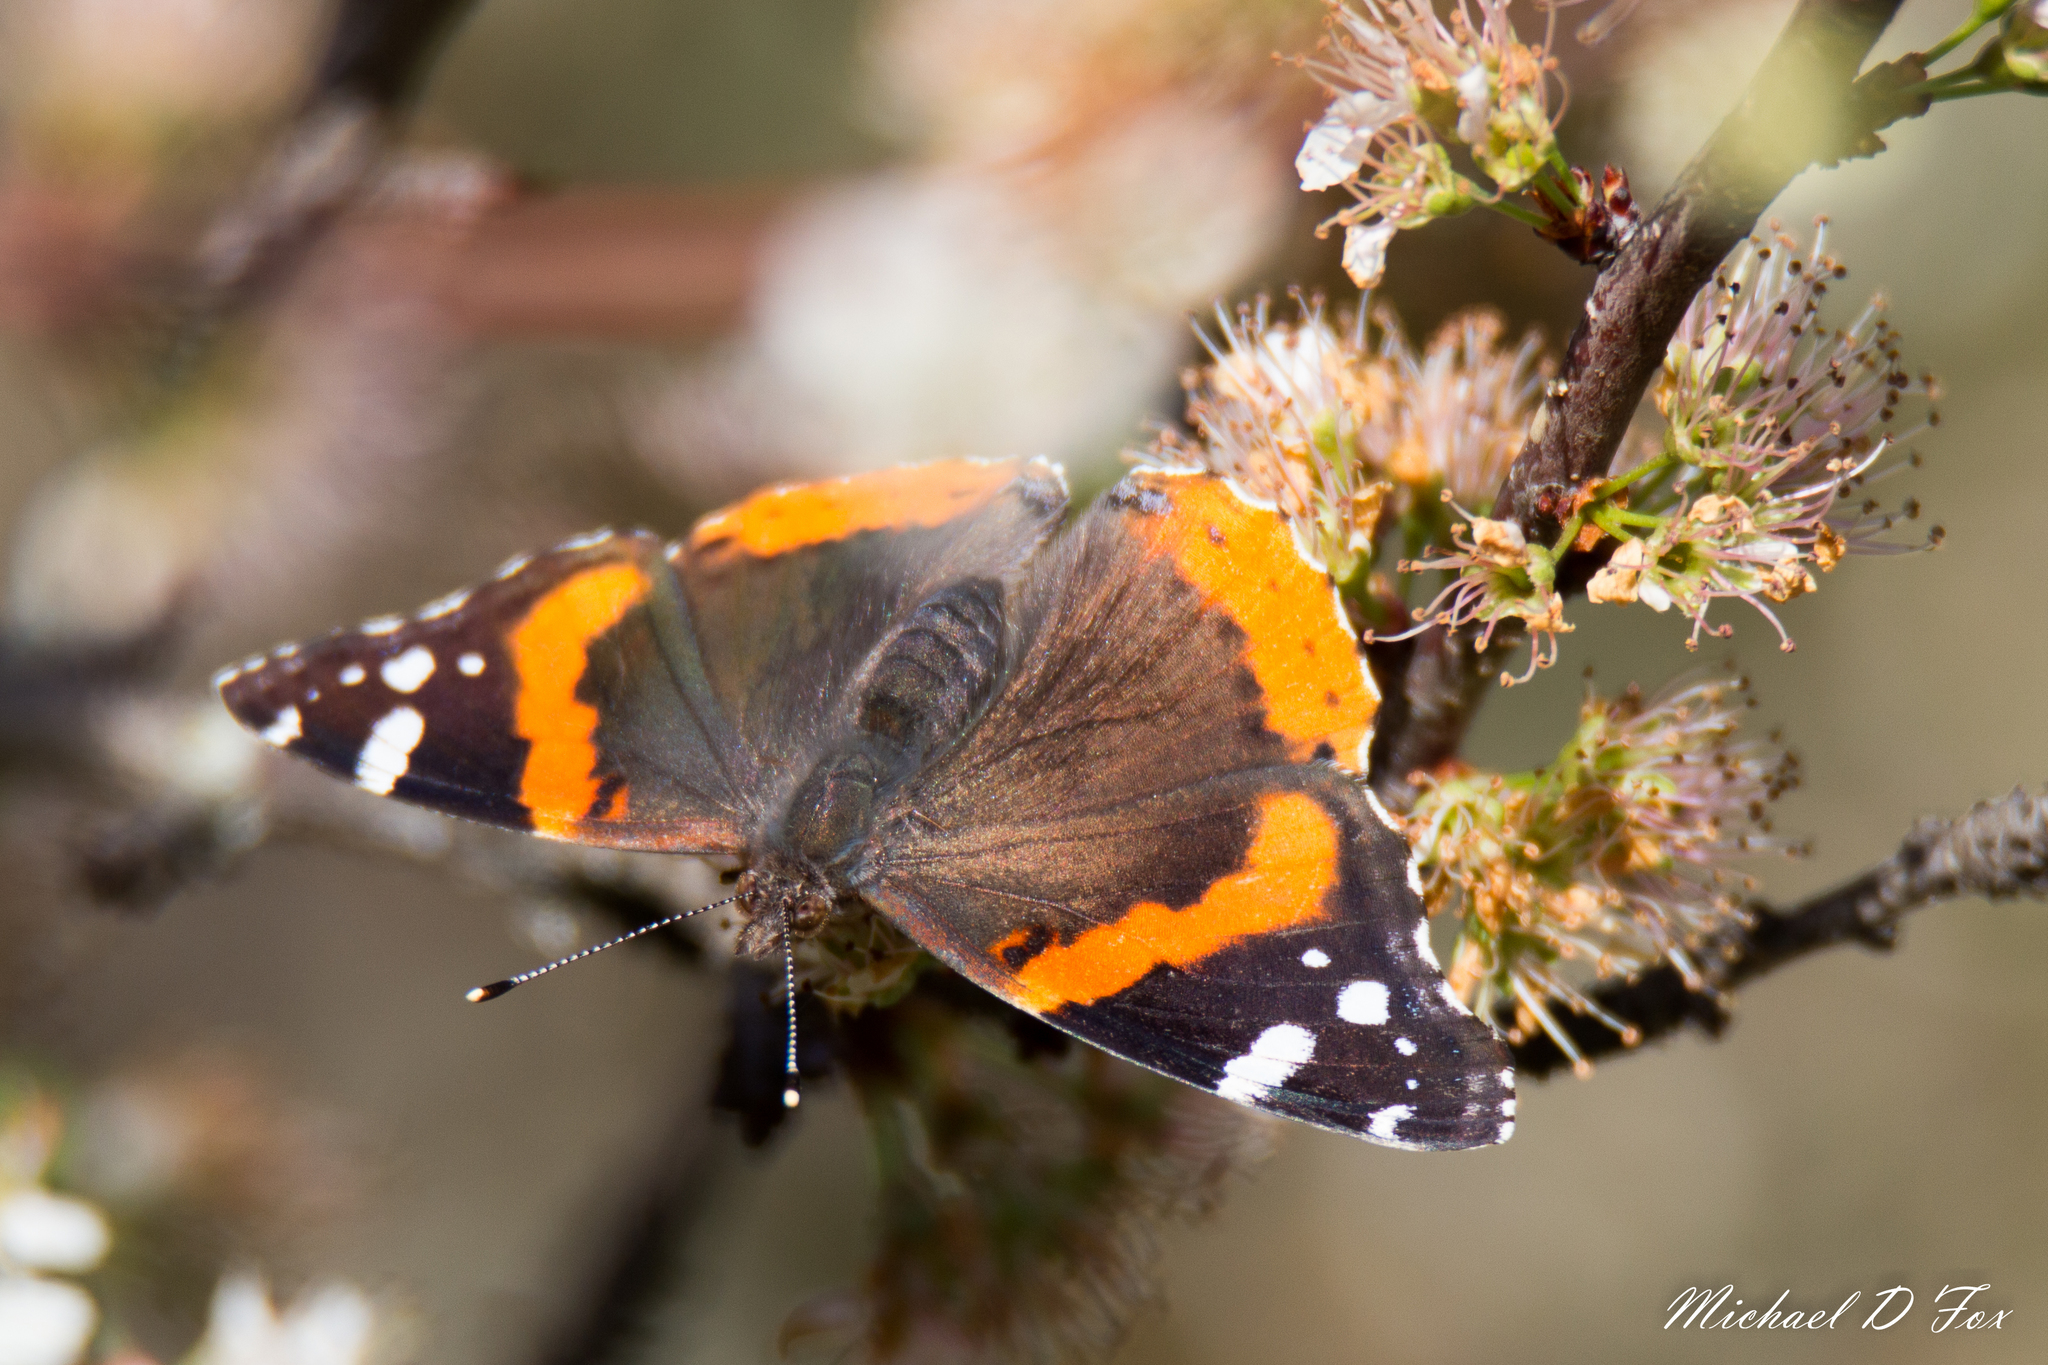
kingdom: Animalia
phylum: Arthropoda
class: Insecta
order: Lepidoptera
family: Nymphalidae
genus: Vanessa
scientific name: Vanessa atalanta
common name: Red admiral
